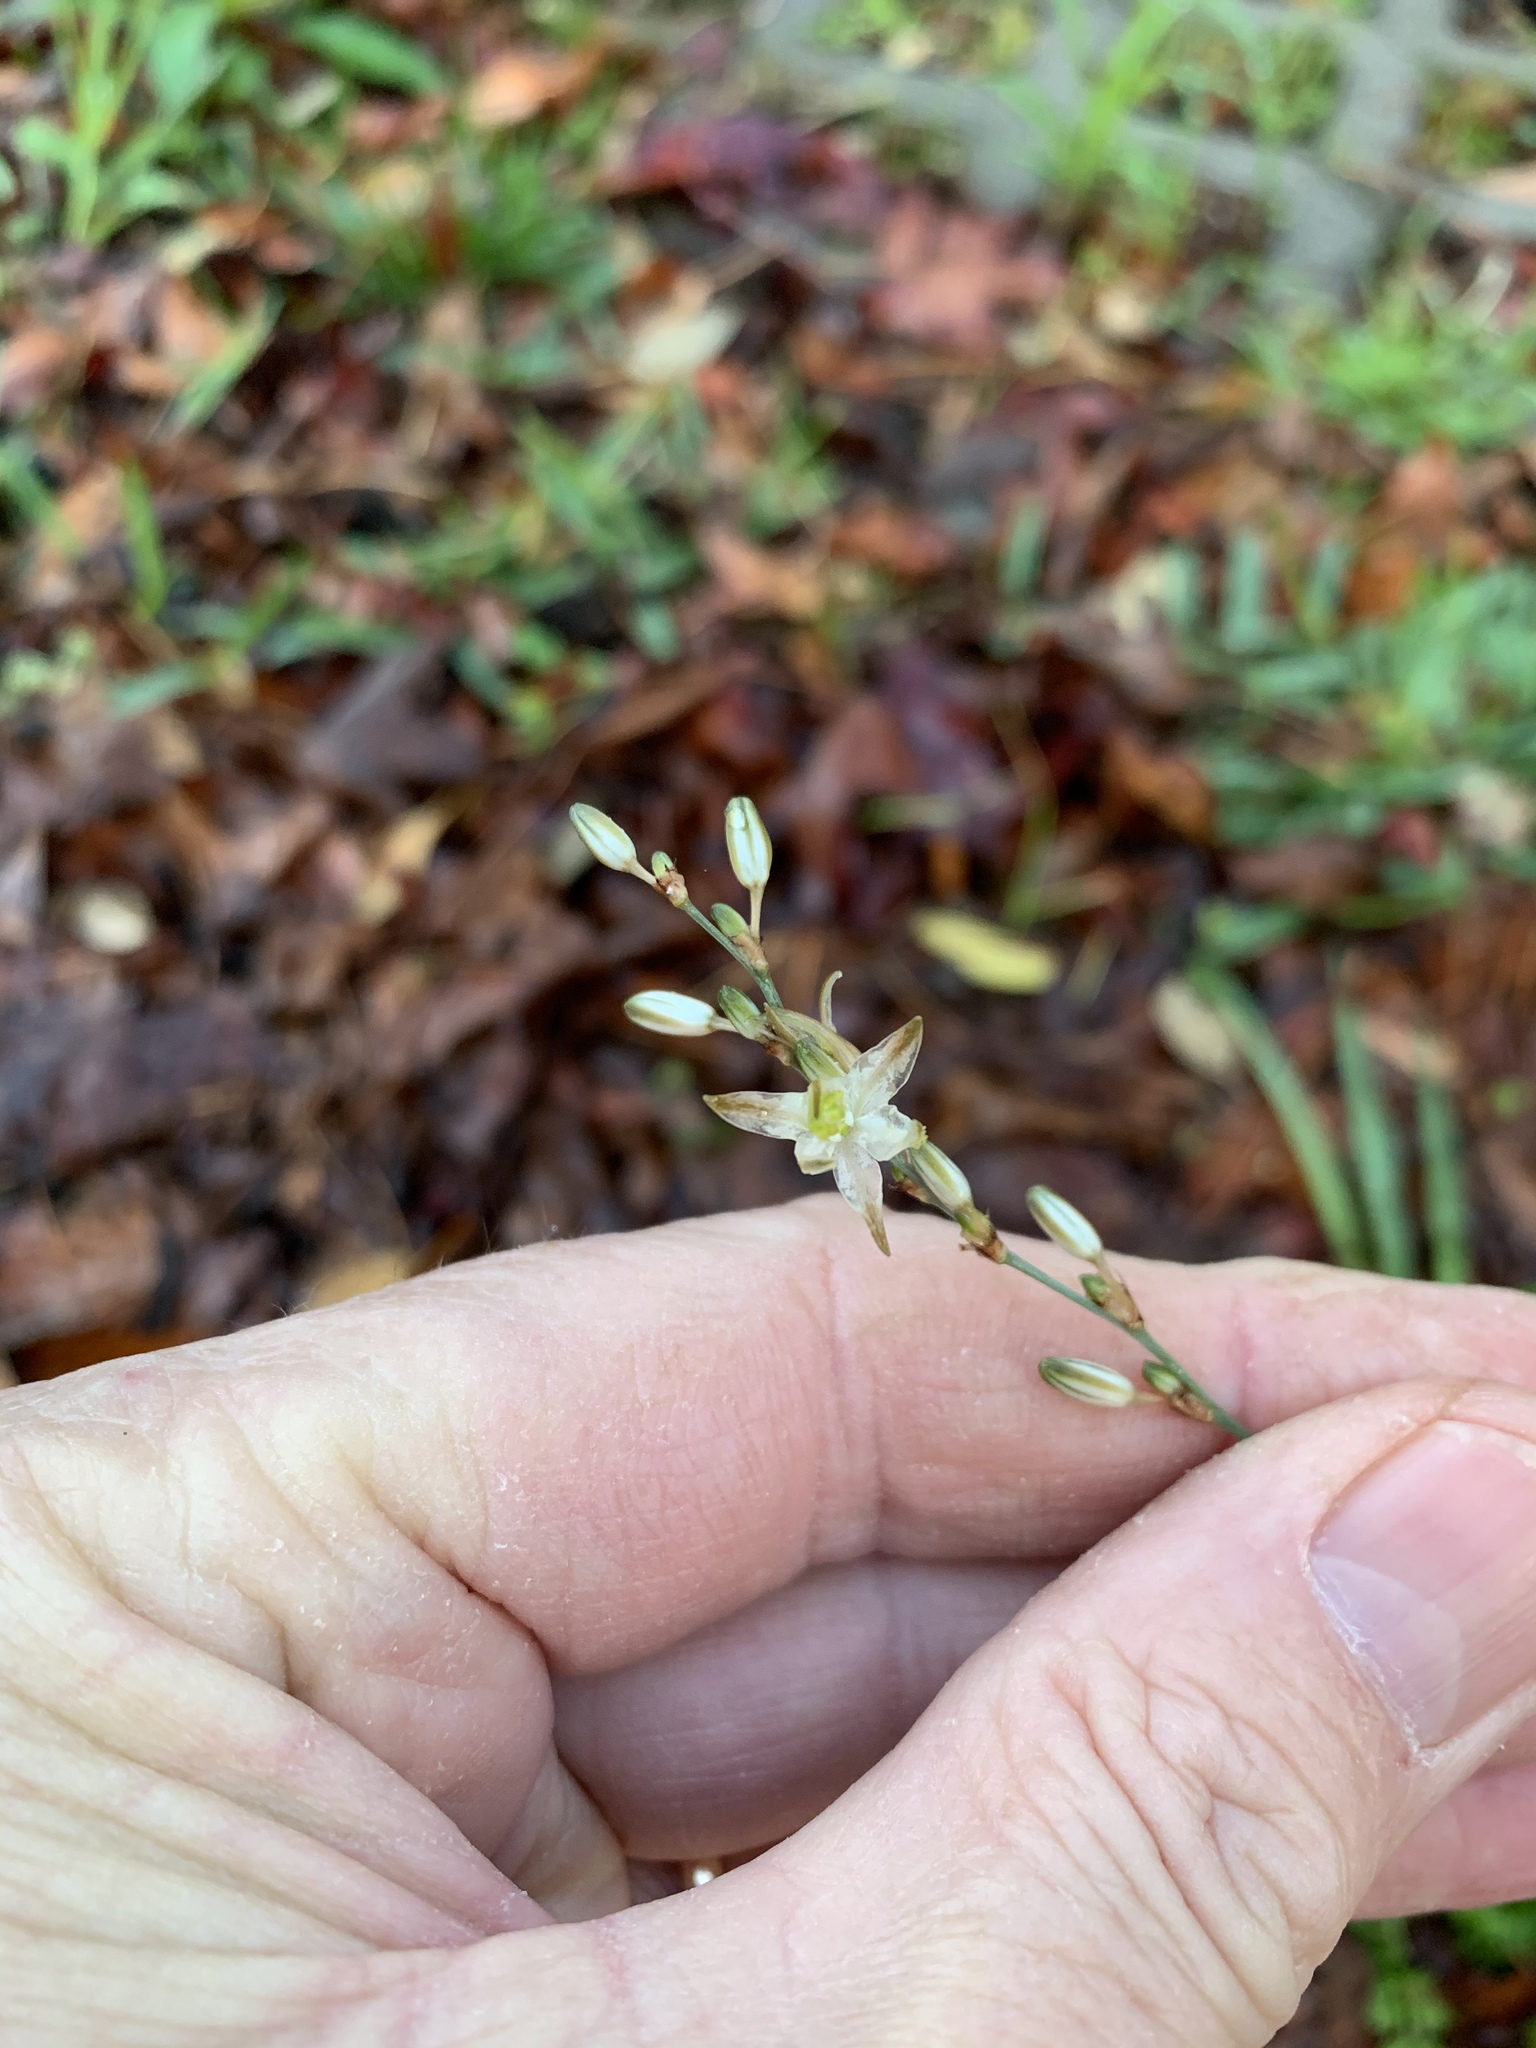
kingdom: Plantae
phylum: Tracheophyta
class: Liliopsida
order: Asparagales
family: Asparagaceae
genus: Chlorophytum
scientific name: Chlorophytum saundersiae
